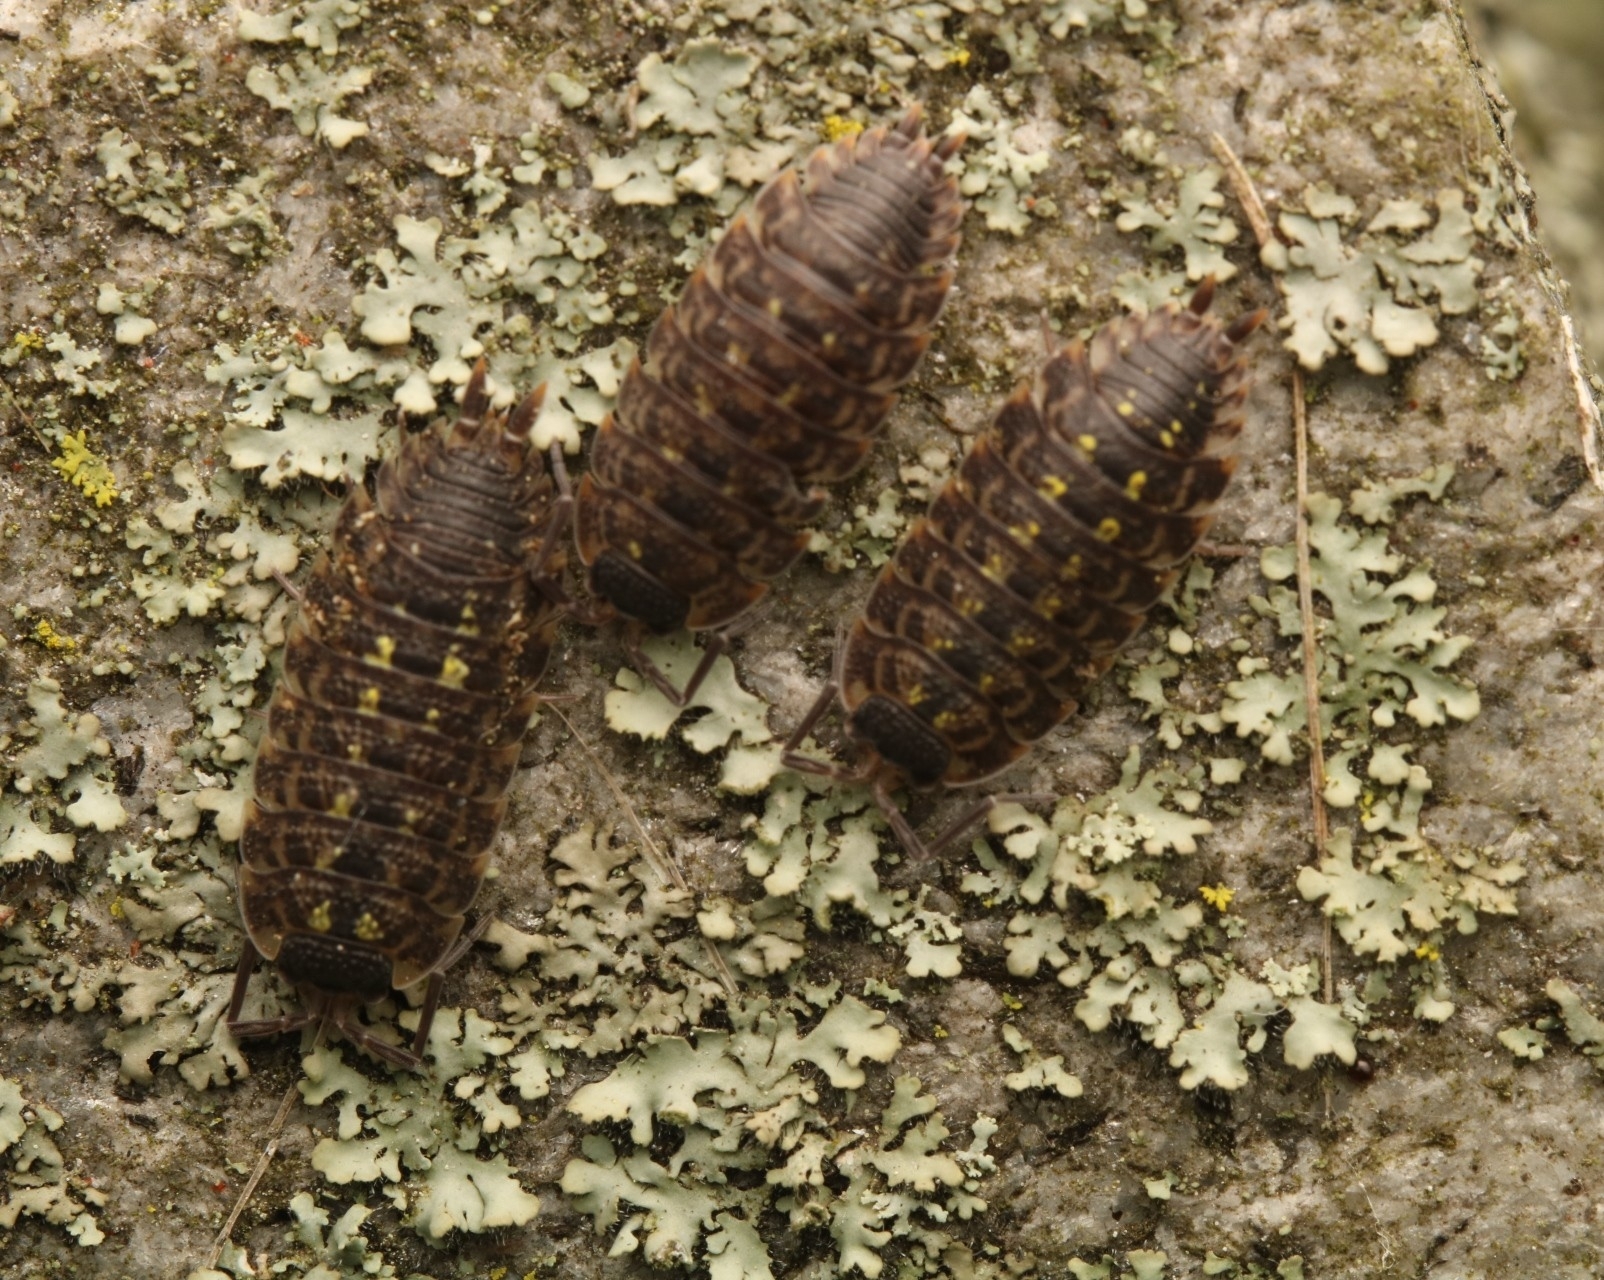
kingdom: Animalia
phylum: Arthropoda
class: Malacostraca
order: Isopoda
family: Porcellionidae
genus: Porcellio
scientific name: Porcellio spinicornis
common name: Painted woodlouse
